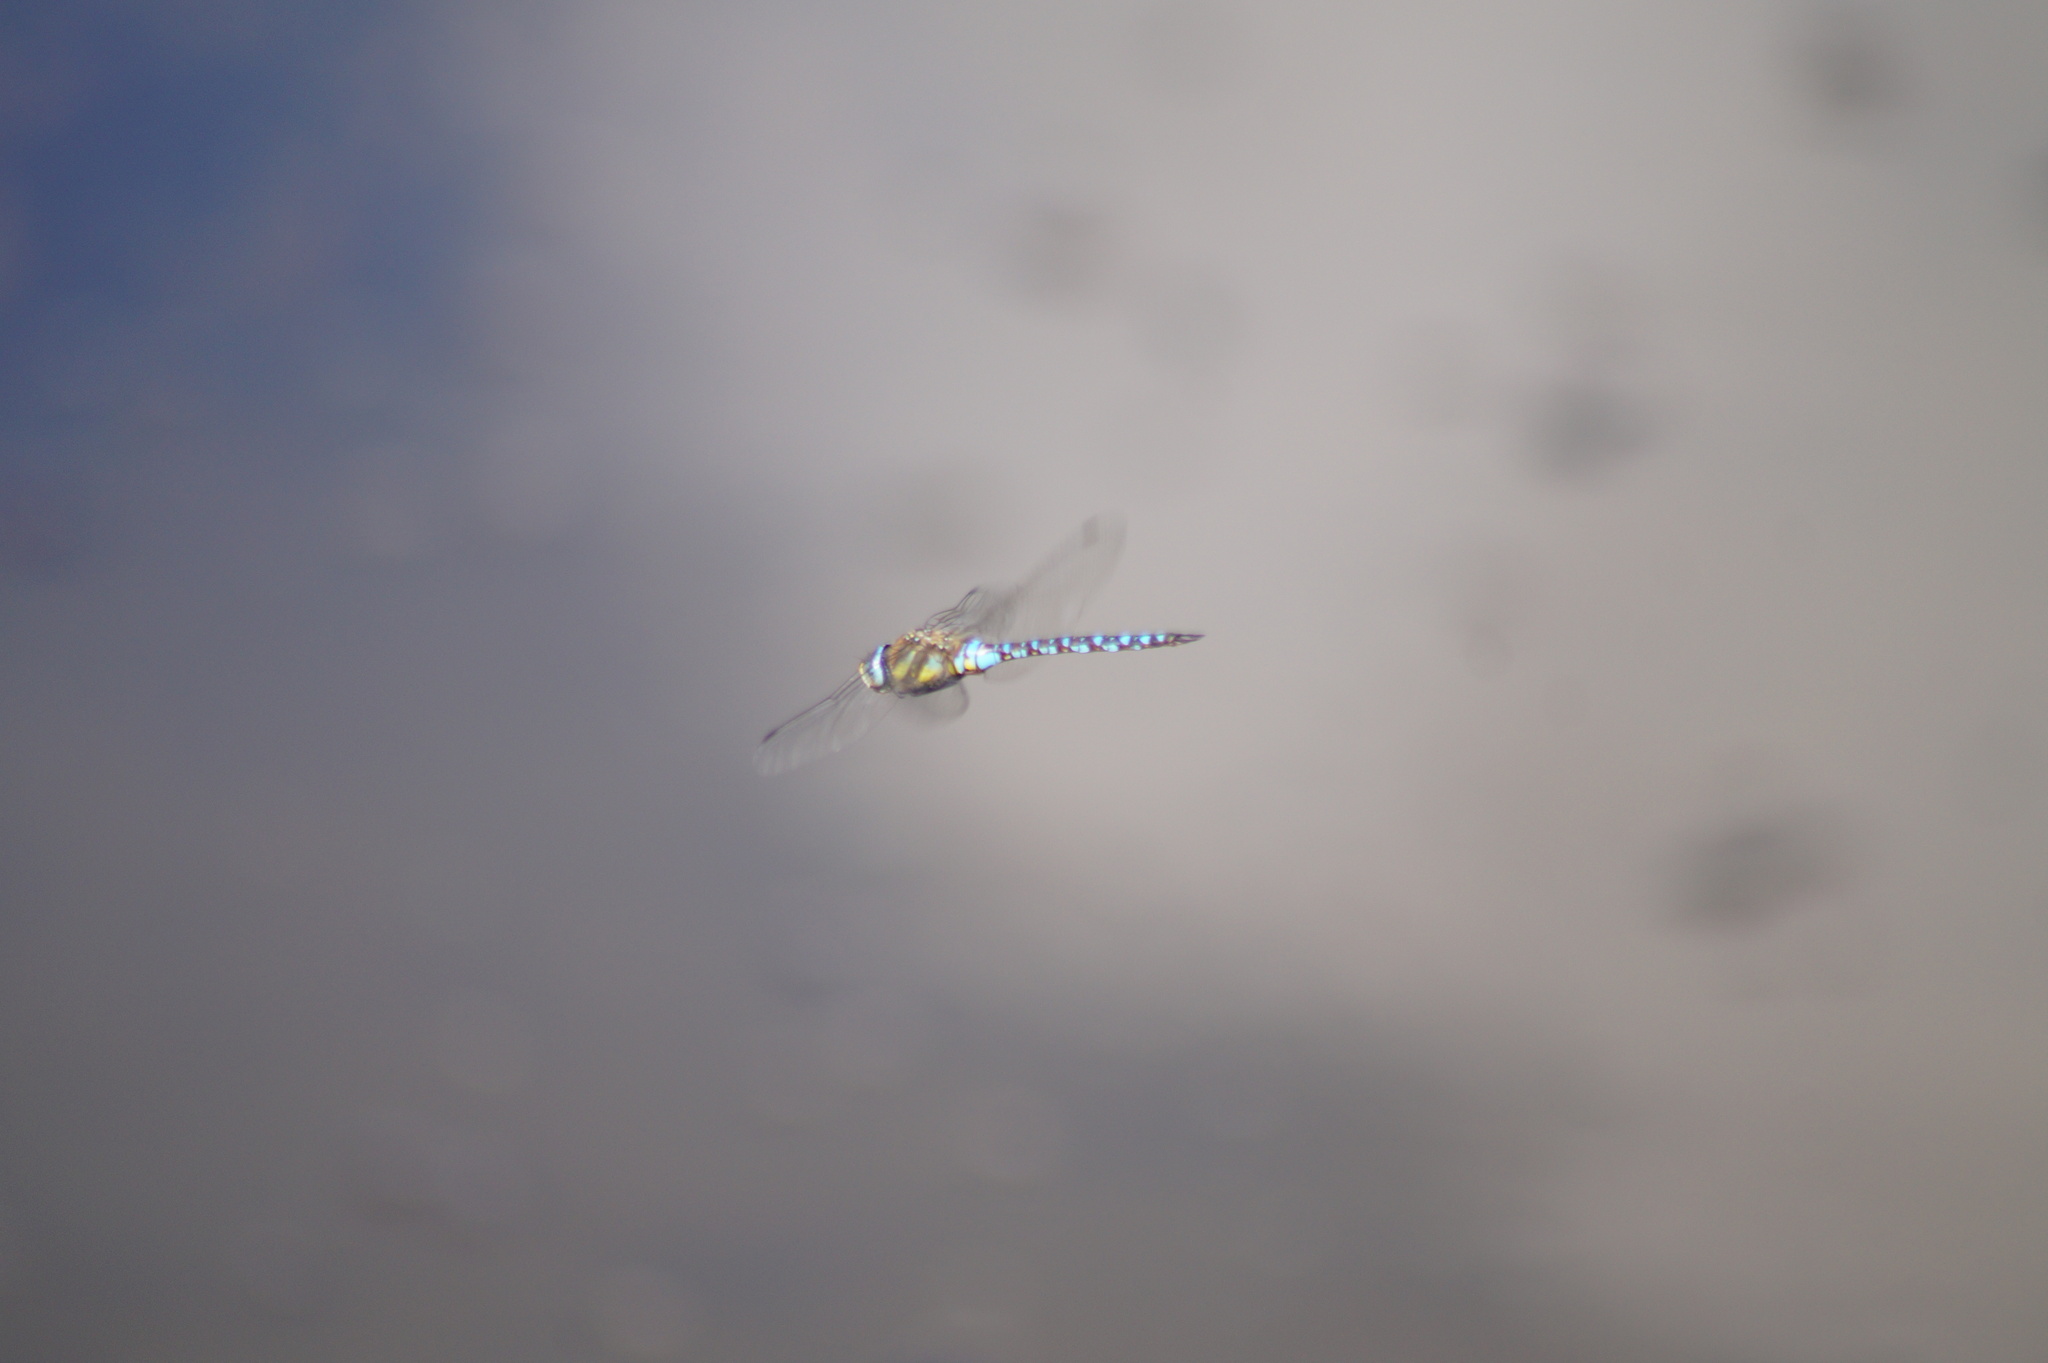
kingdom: Animalia
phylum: Arthropoda
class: Insecta
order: Odonata
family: Aeshnidae
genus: Aeshna
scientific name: Aeshna mixta
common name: Migrant hawker
